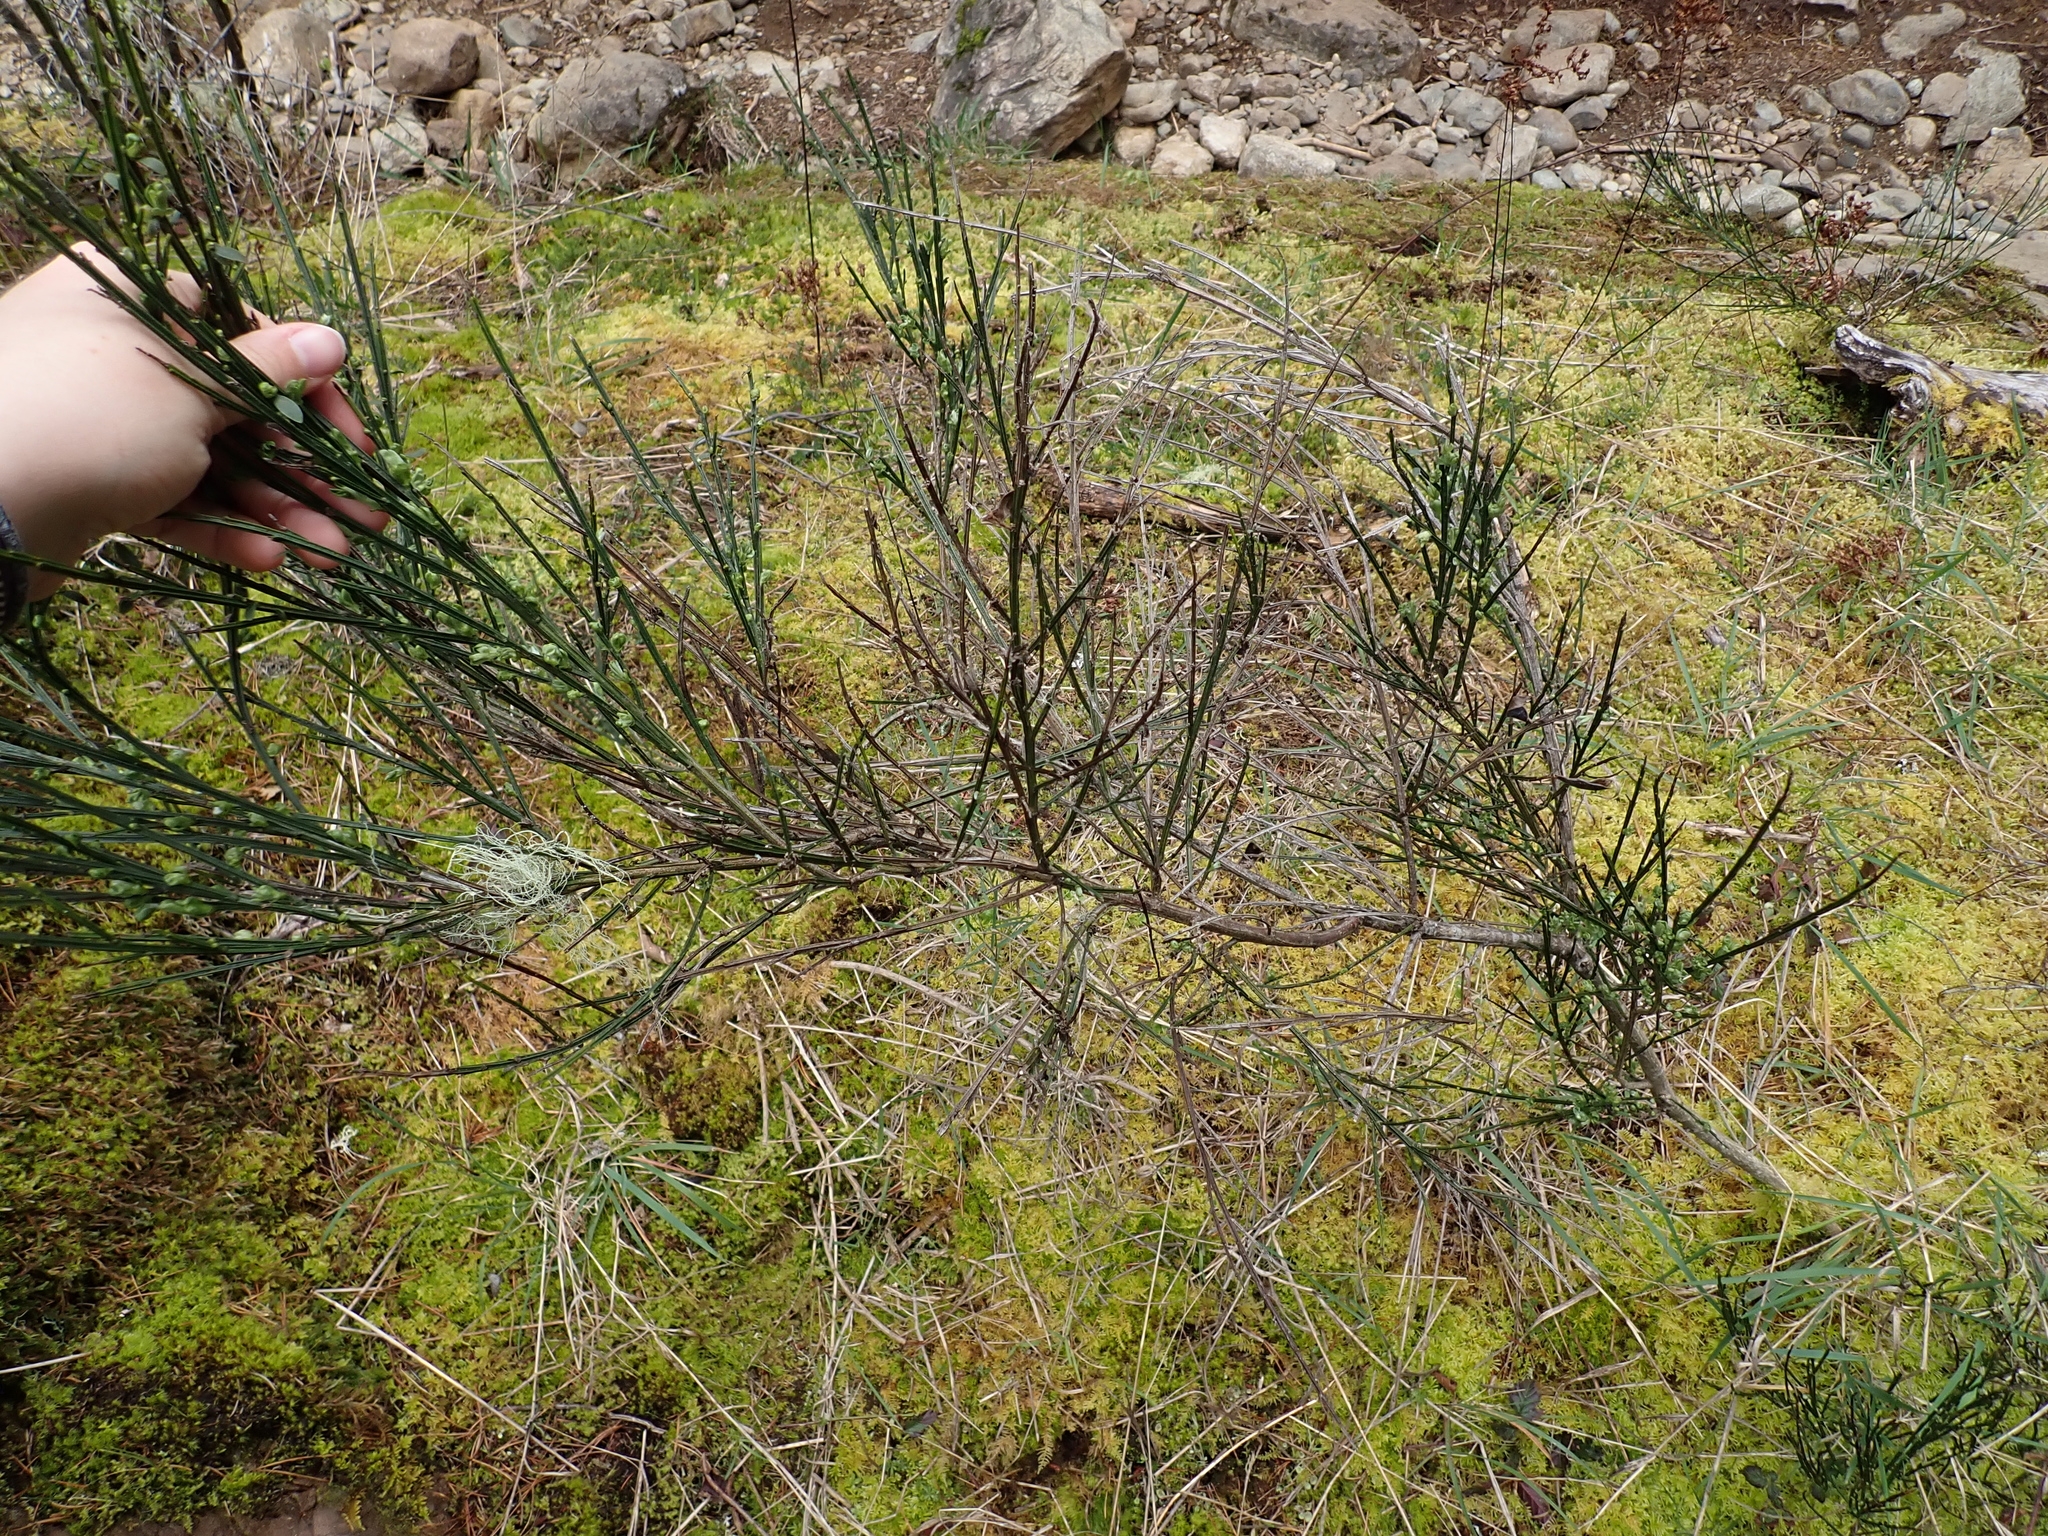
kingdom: Plantae
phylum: Tracheophyta
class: Magnoliopsida
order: Fabales
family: Fabaceae
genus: Cytisus
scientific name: Cytisus scoparius
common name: Scotch broom
